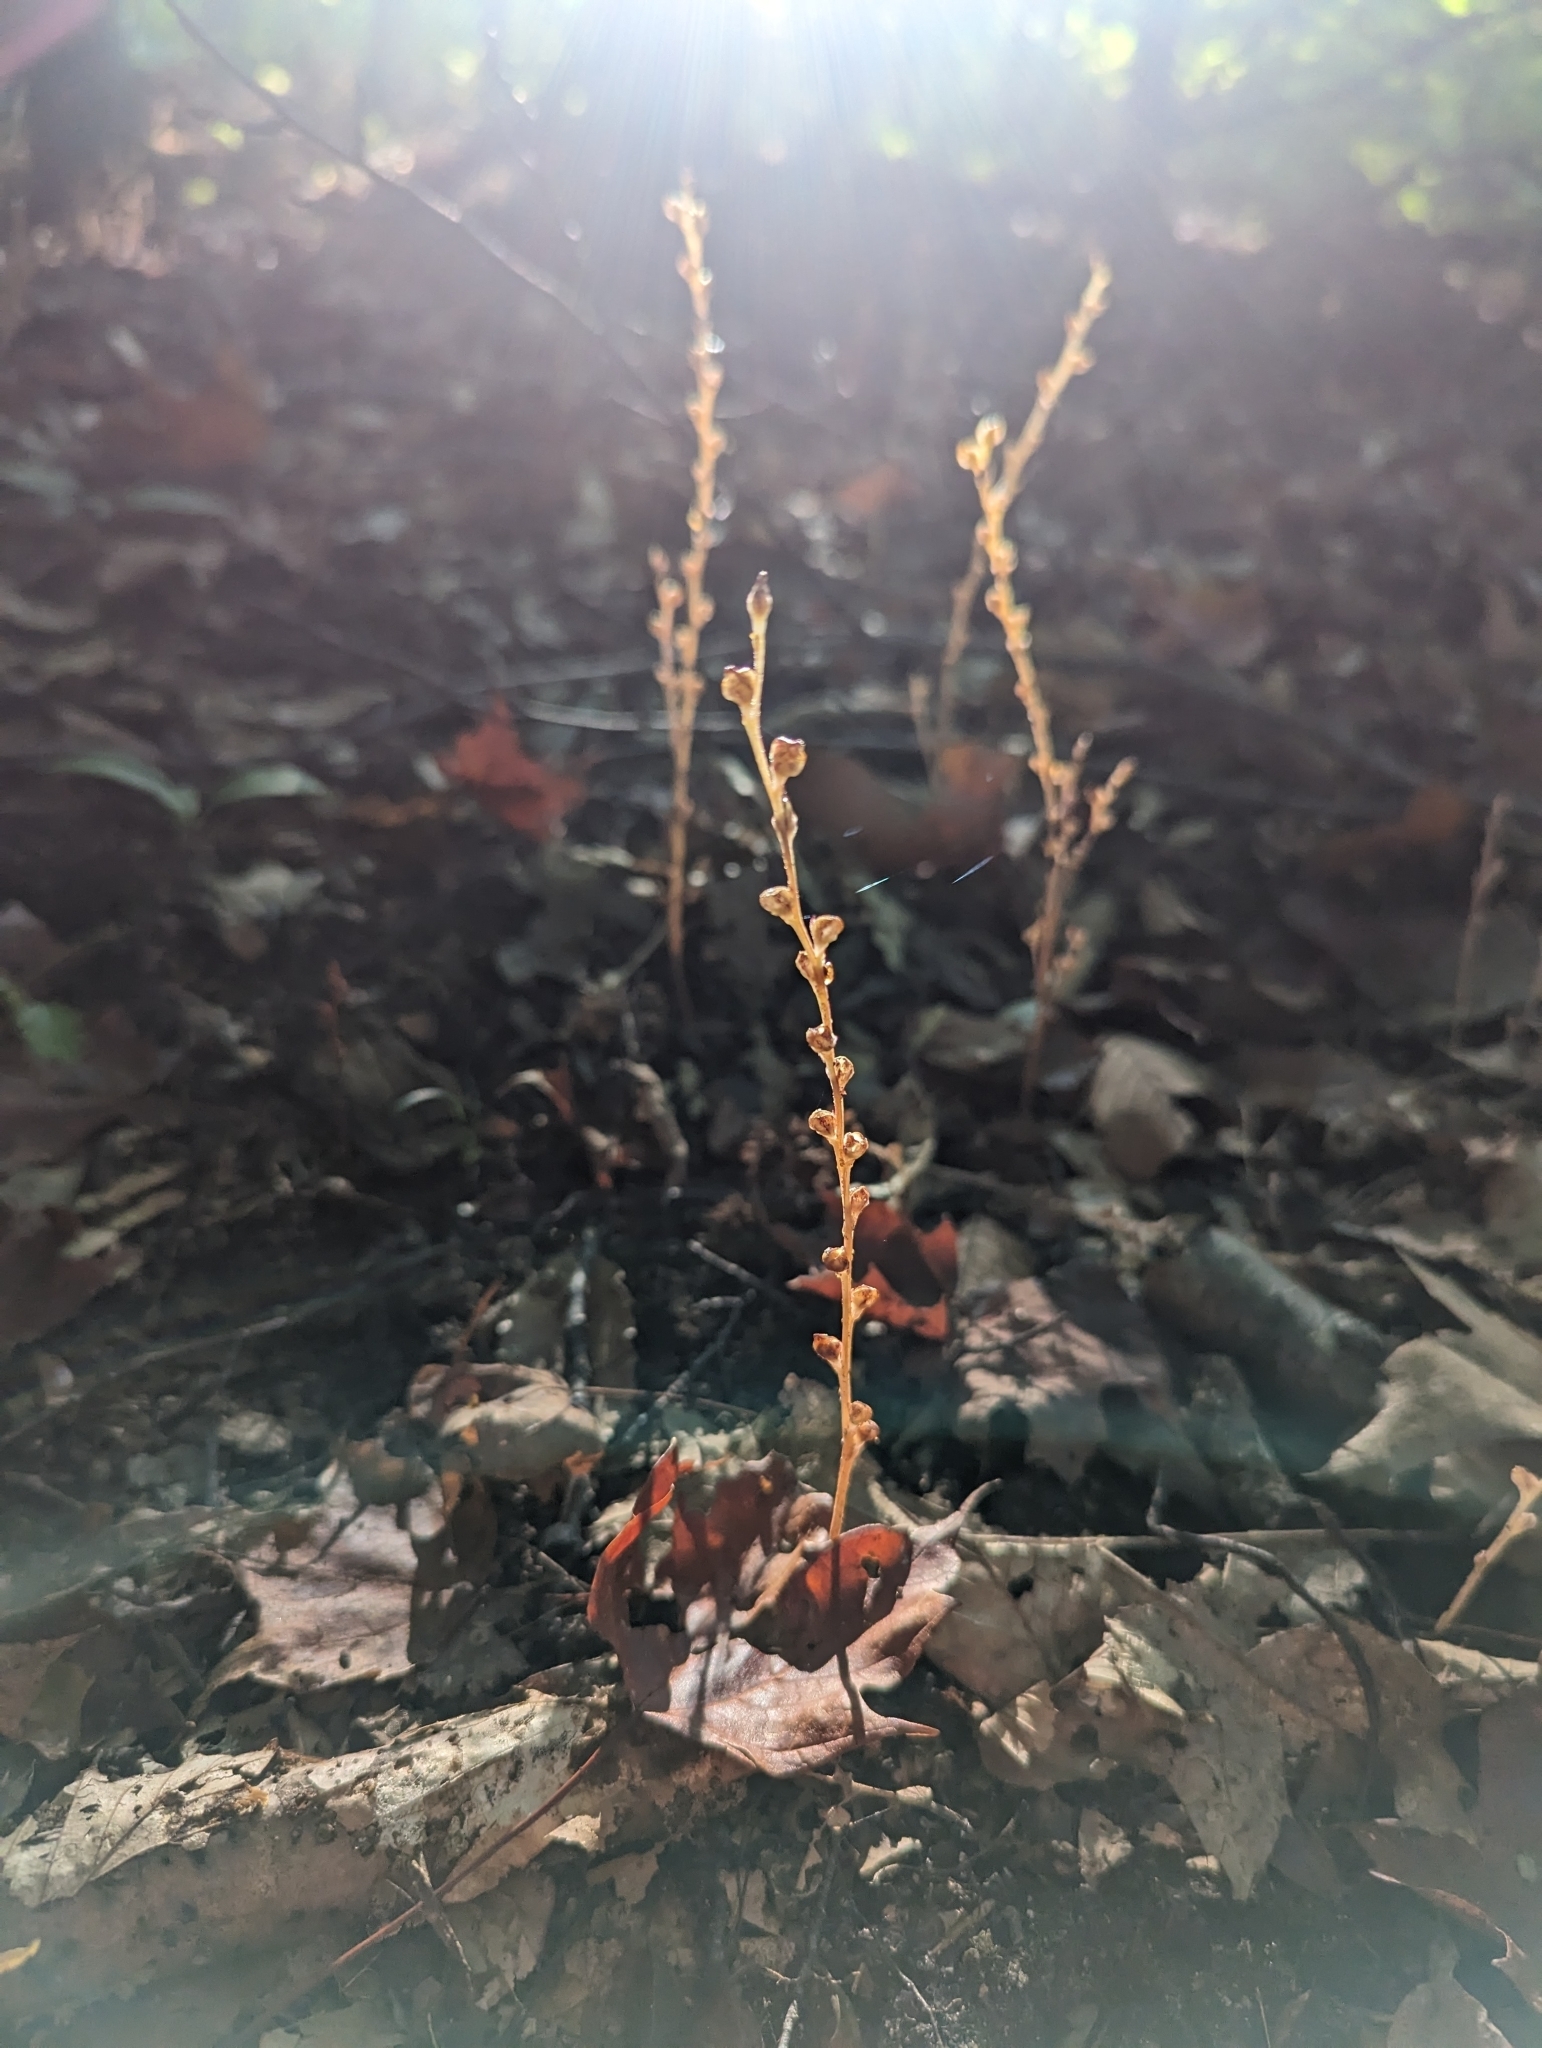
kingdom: Plantae
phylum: Tracheophyta
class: Magnoliopsida
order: Lamiales
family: Orobanchaceae
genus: Epifagus
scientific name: Epifagus virginiana
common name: Beechdrops
